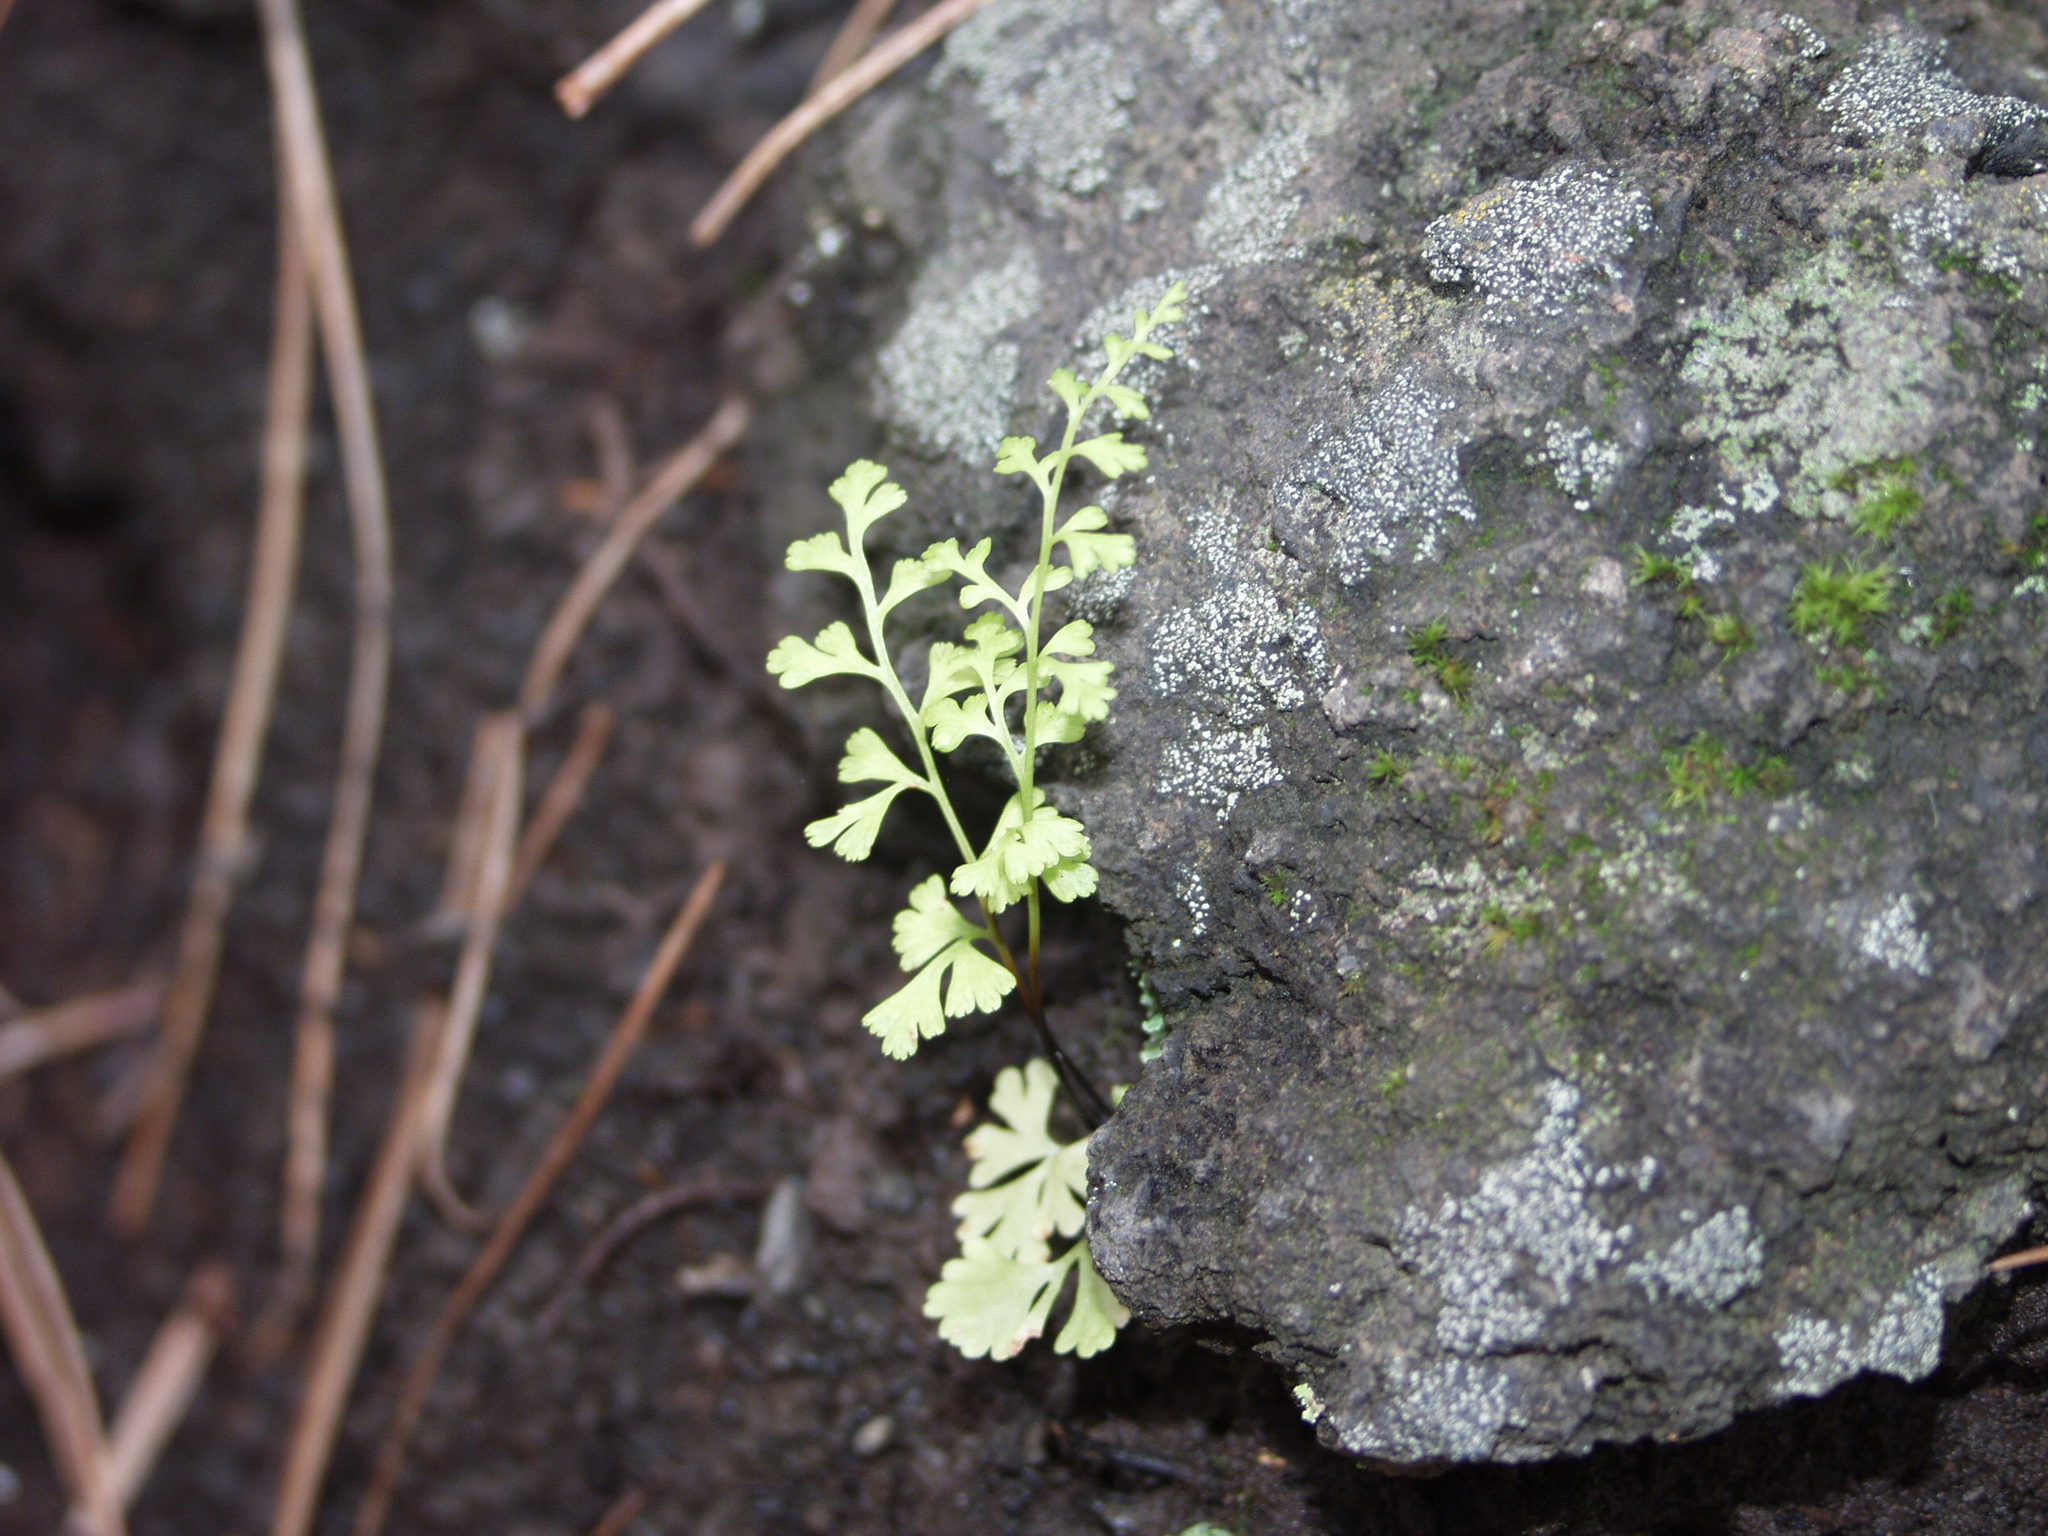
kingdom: Plantae
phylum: Tracheophyta
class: Polypodiopsida
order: Polypodiales
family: Pteridaceae
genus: Anogramma
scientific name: Anogramma leptophylla
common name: Jersey fern
